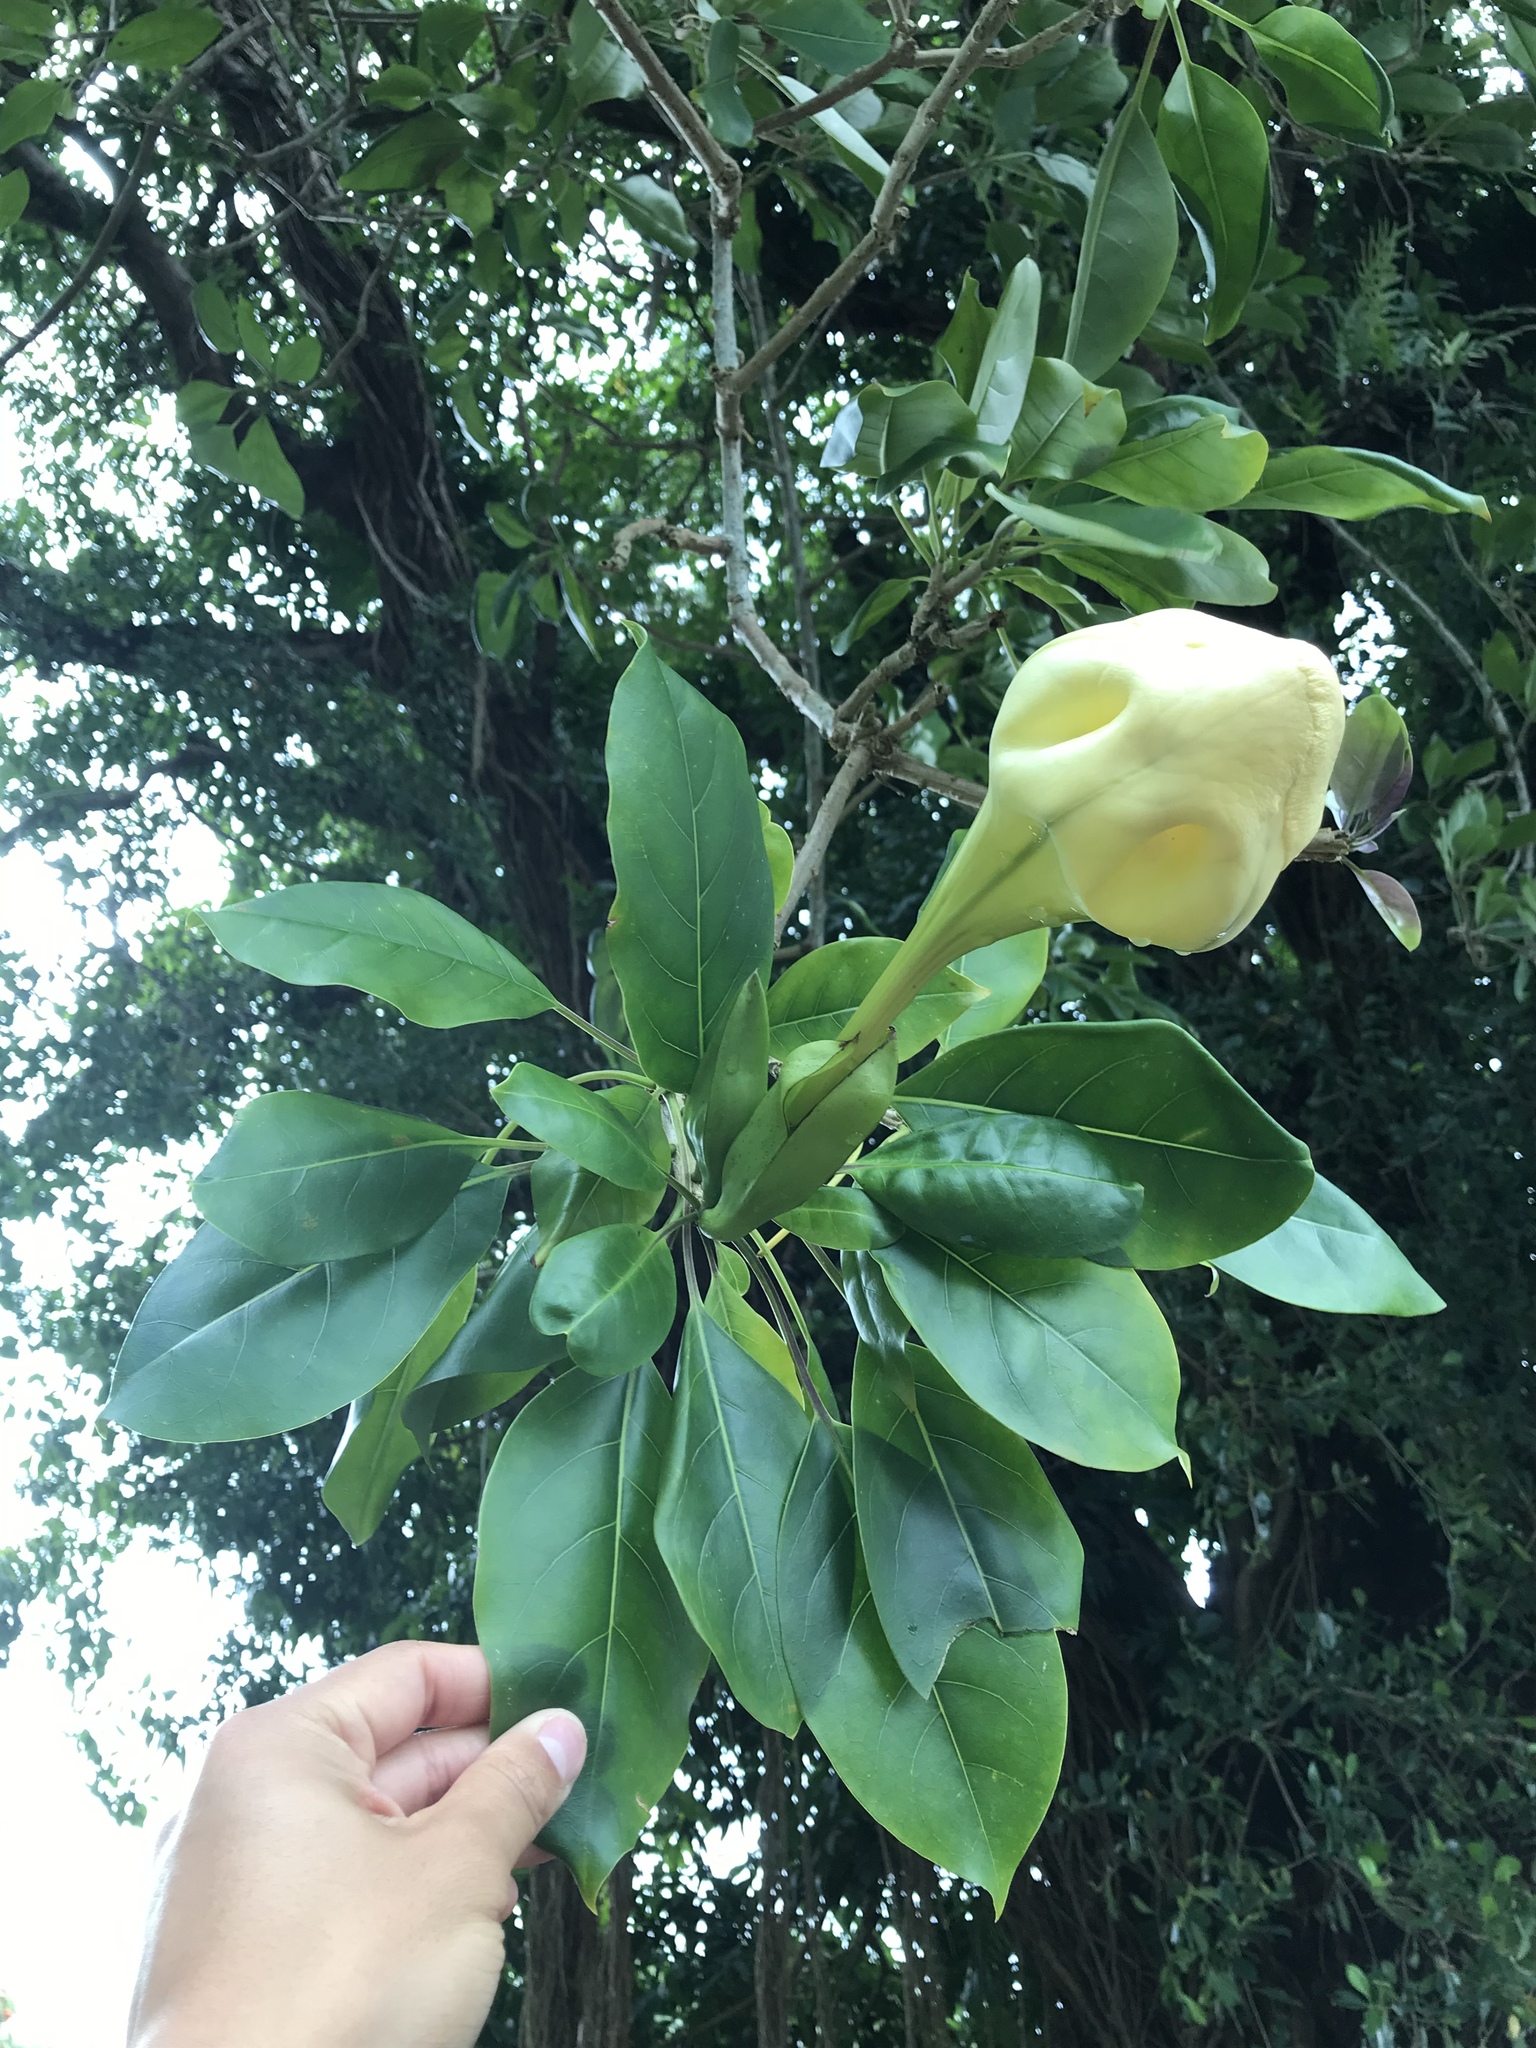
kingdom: Plantae
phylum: Tracheophyta
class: Magnoliopsida
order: Solanales
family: Solanaceae
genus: Solandra
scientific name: Solandra maxima
